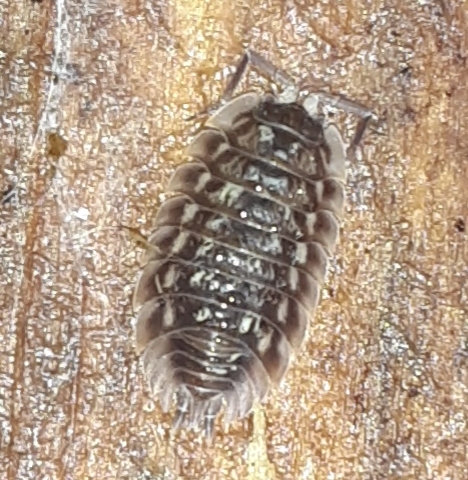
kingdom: Animalia
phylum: Arthropoda
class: Malacostraca
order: Isopoda
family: Oniscidae
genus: Oniscus
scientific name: Oniscus asellus
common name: Common shiny woodlouse
